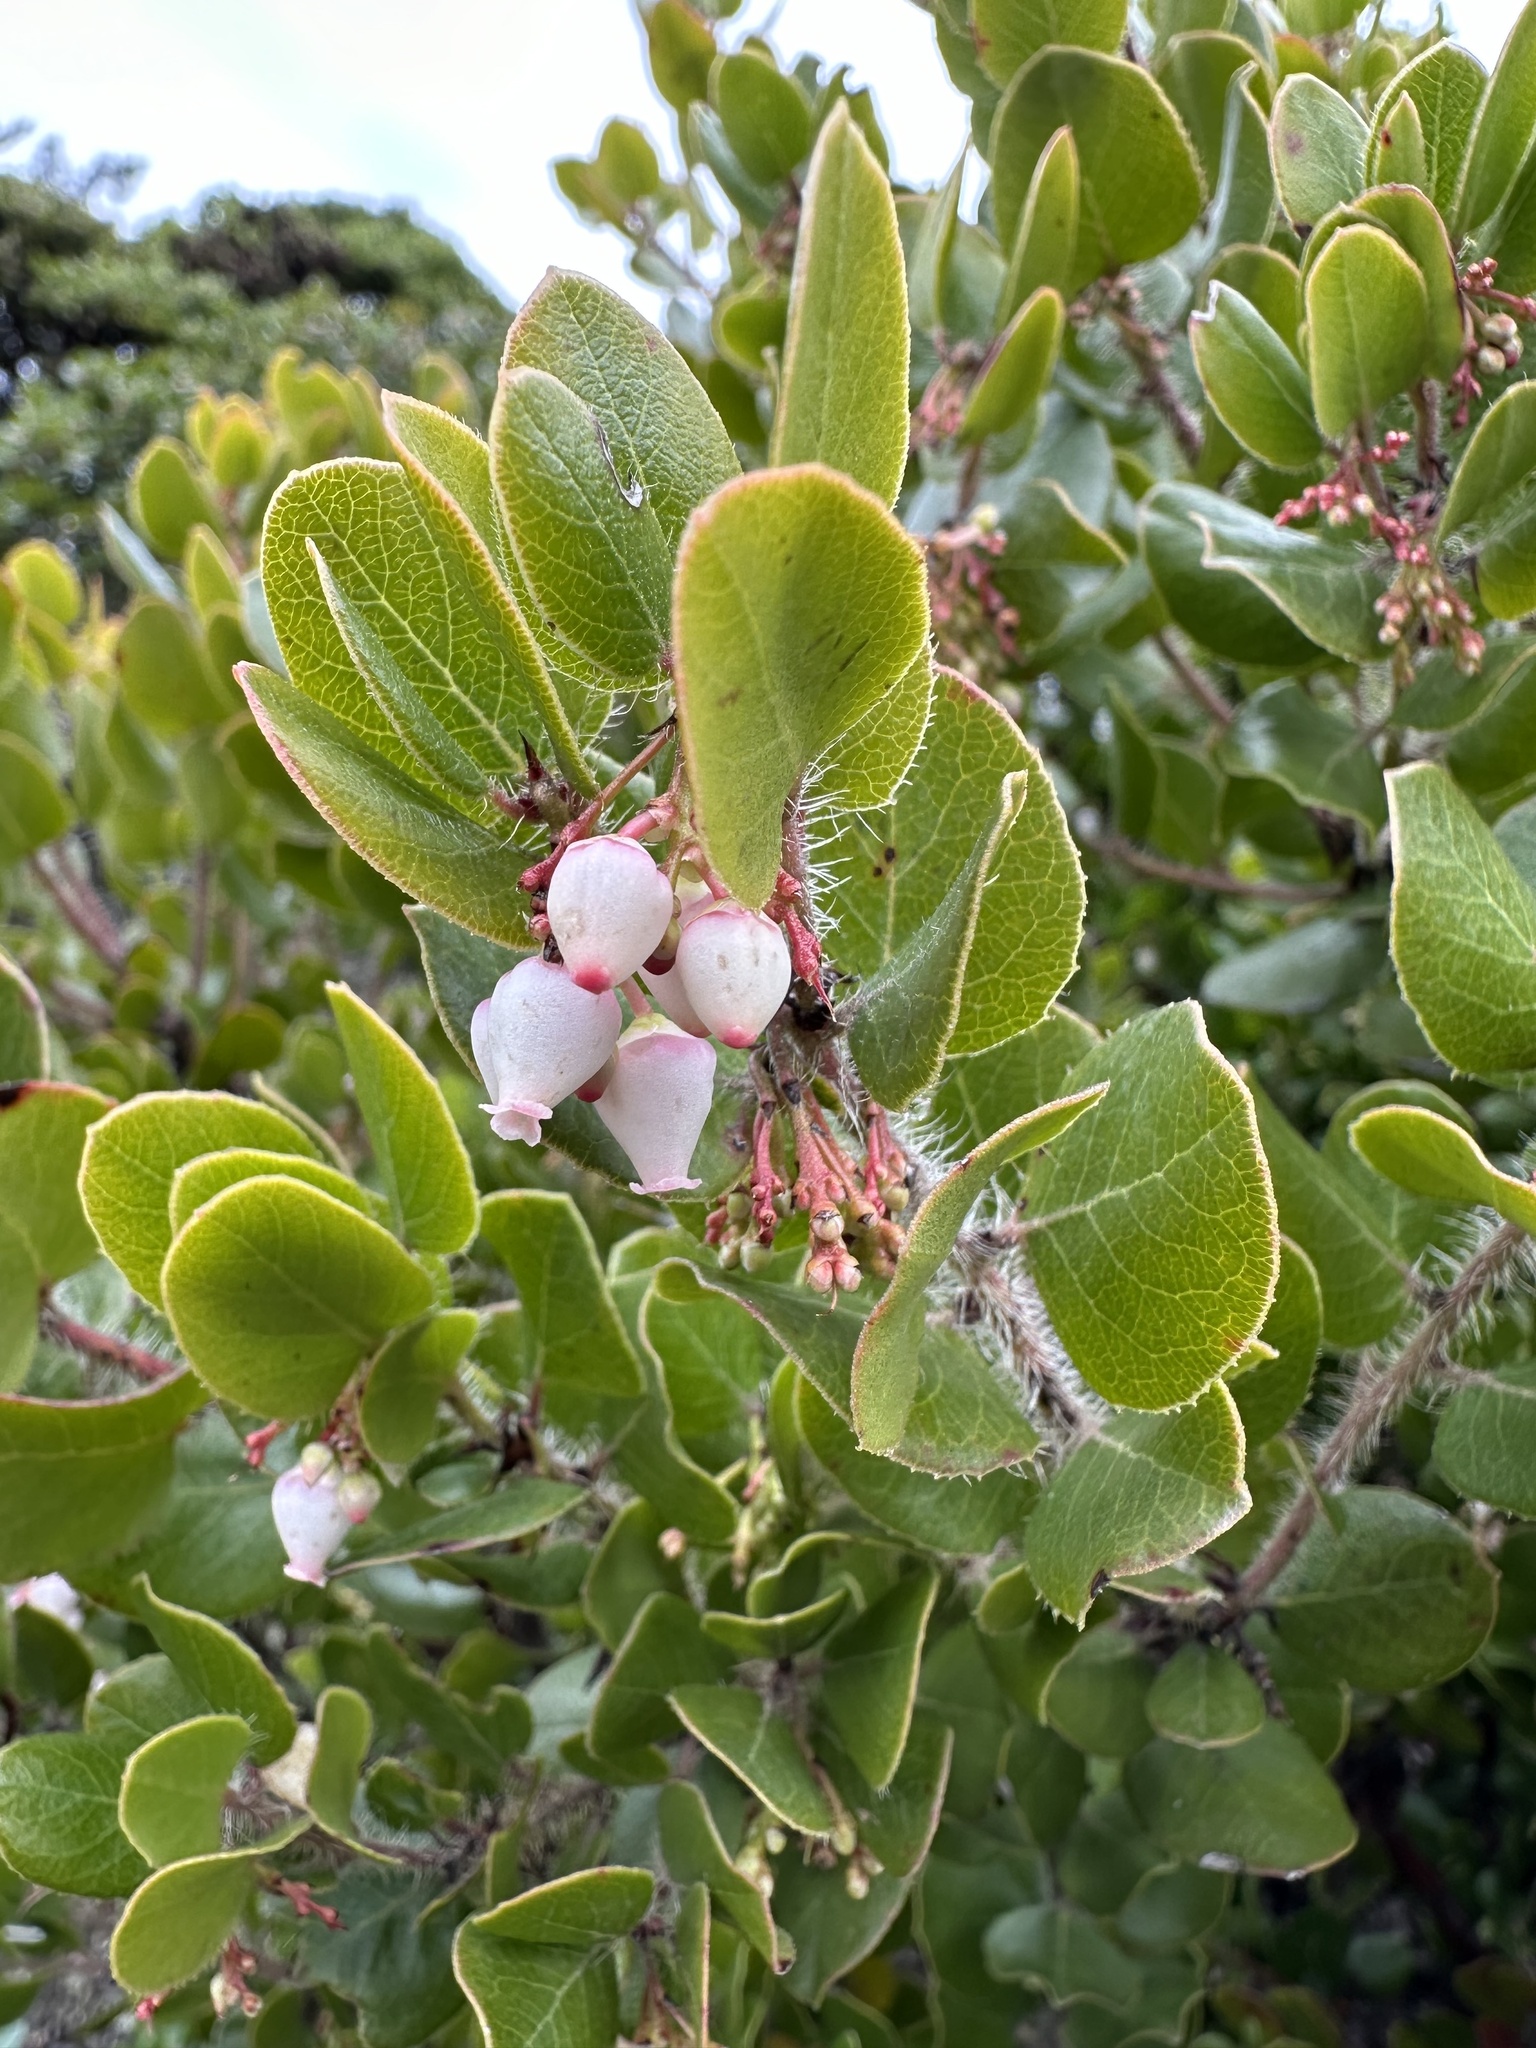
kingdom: Plantae
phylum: Tracheophyta
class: Magnoliopsida
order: Ericales
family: Ericaceae
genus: Arctostaphylos
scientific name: Arctostaphylos nummularia
